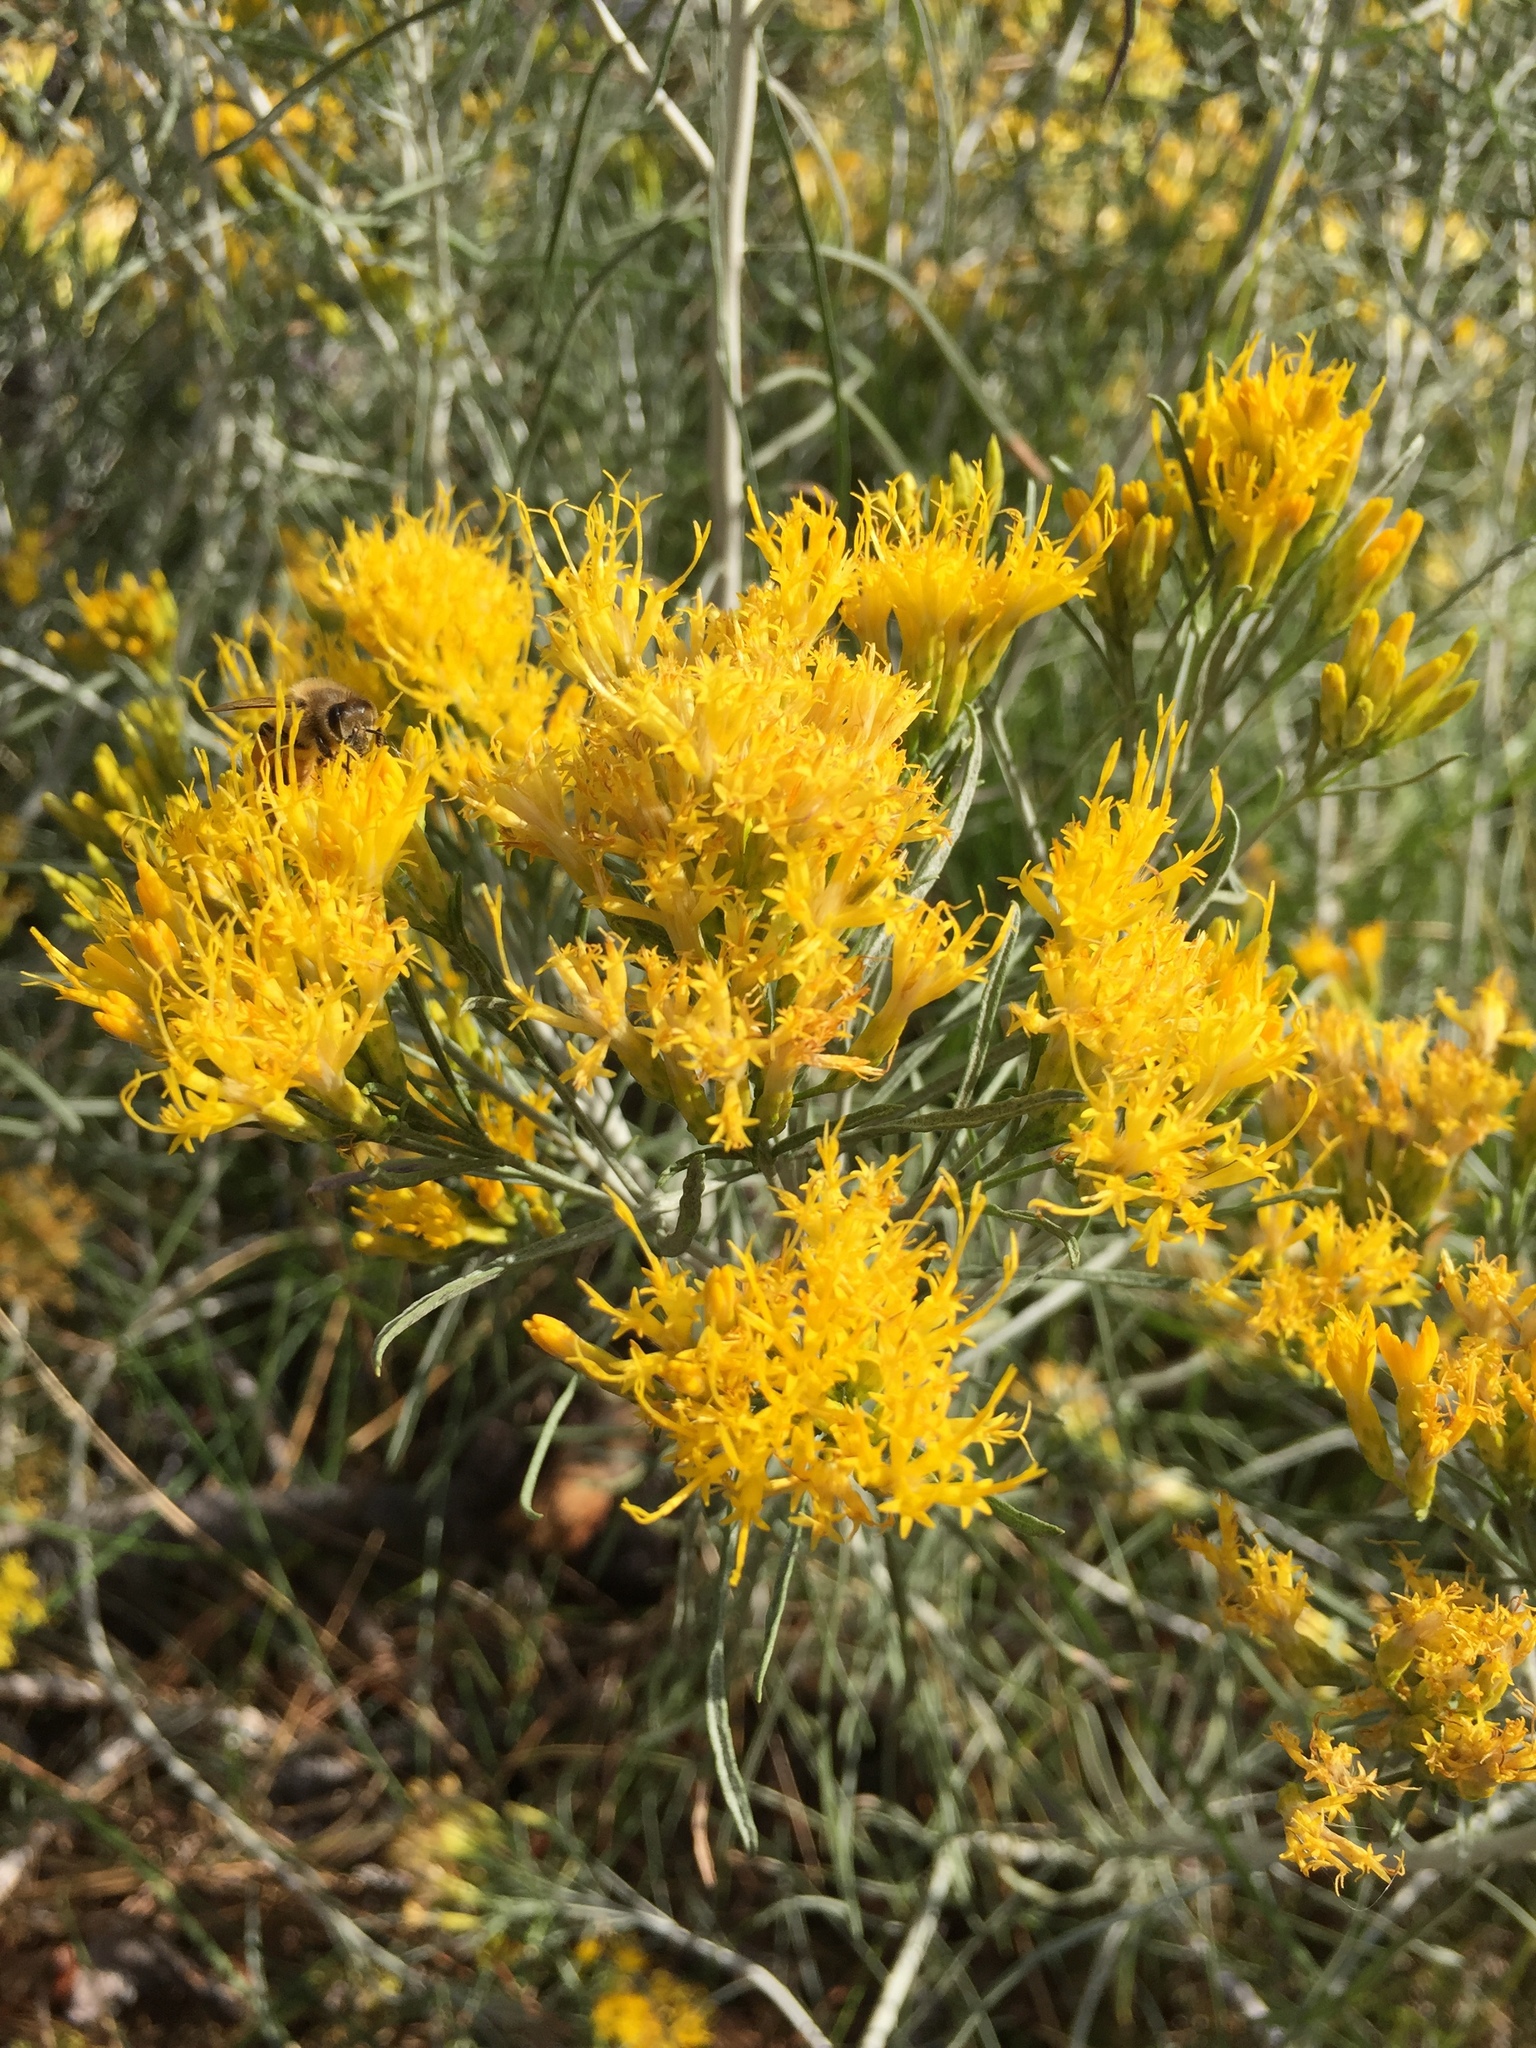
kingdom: Plantae
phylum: Tracheophyta
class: Magnoliopsida
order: Asterales
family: Asteraceae
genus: Ericameria
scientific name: Ericameria nauseosa
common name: Rubber rabbitbrush
